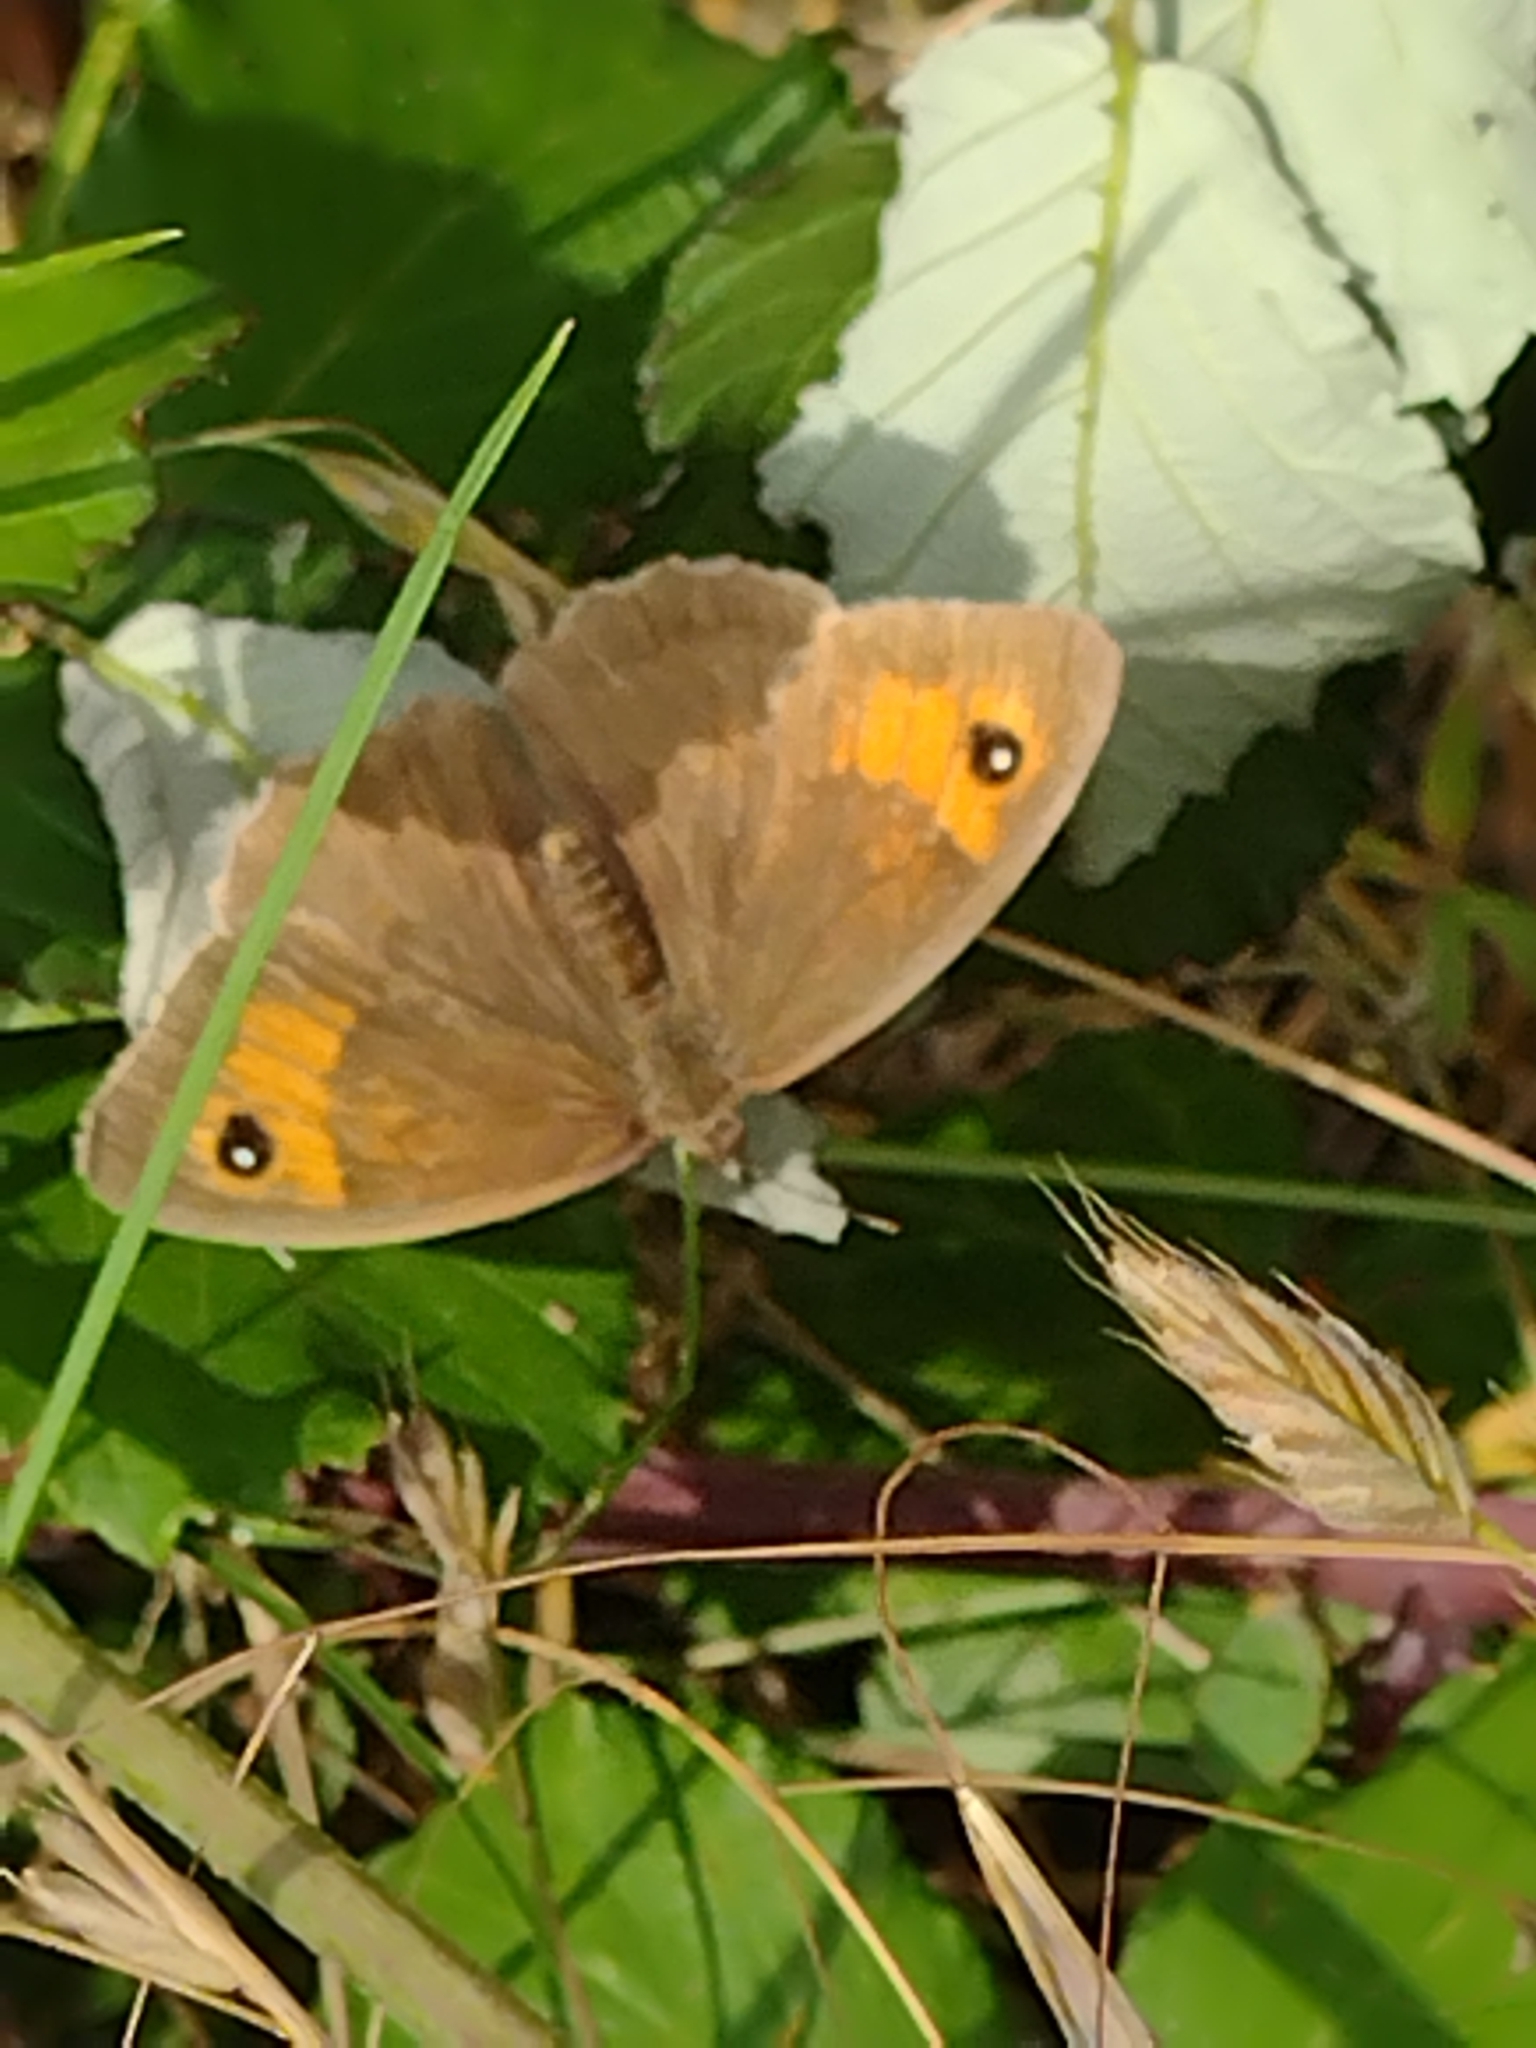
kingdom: Animalia
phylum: Arthropoda
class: Insecta
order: Lepidoptera
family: Nymphalidae
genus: Maniola
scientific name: Maniola jurtina
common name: Meadow brown
